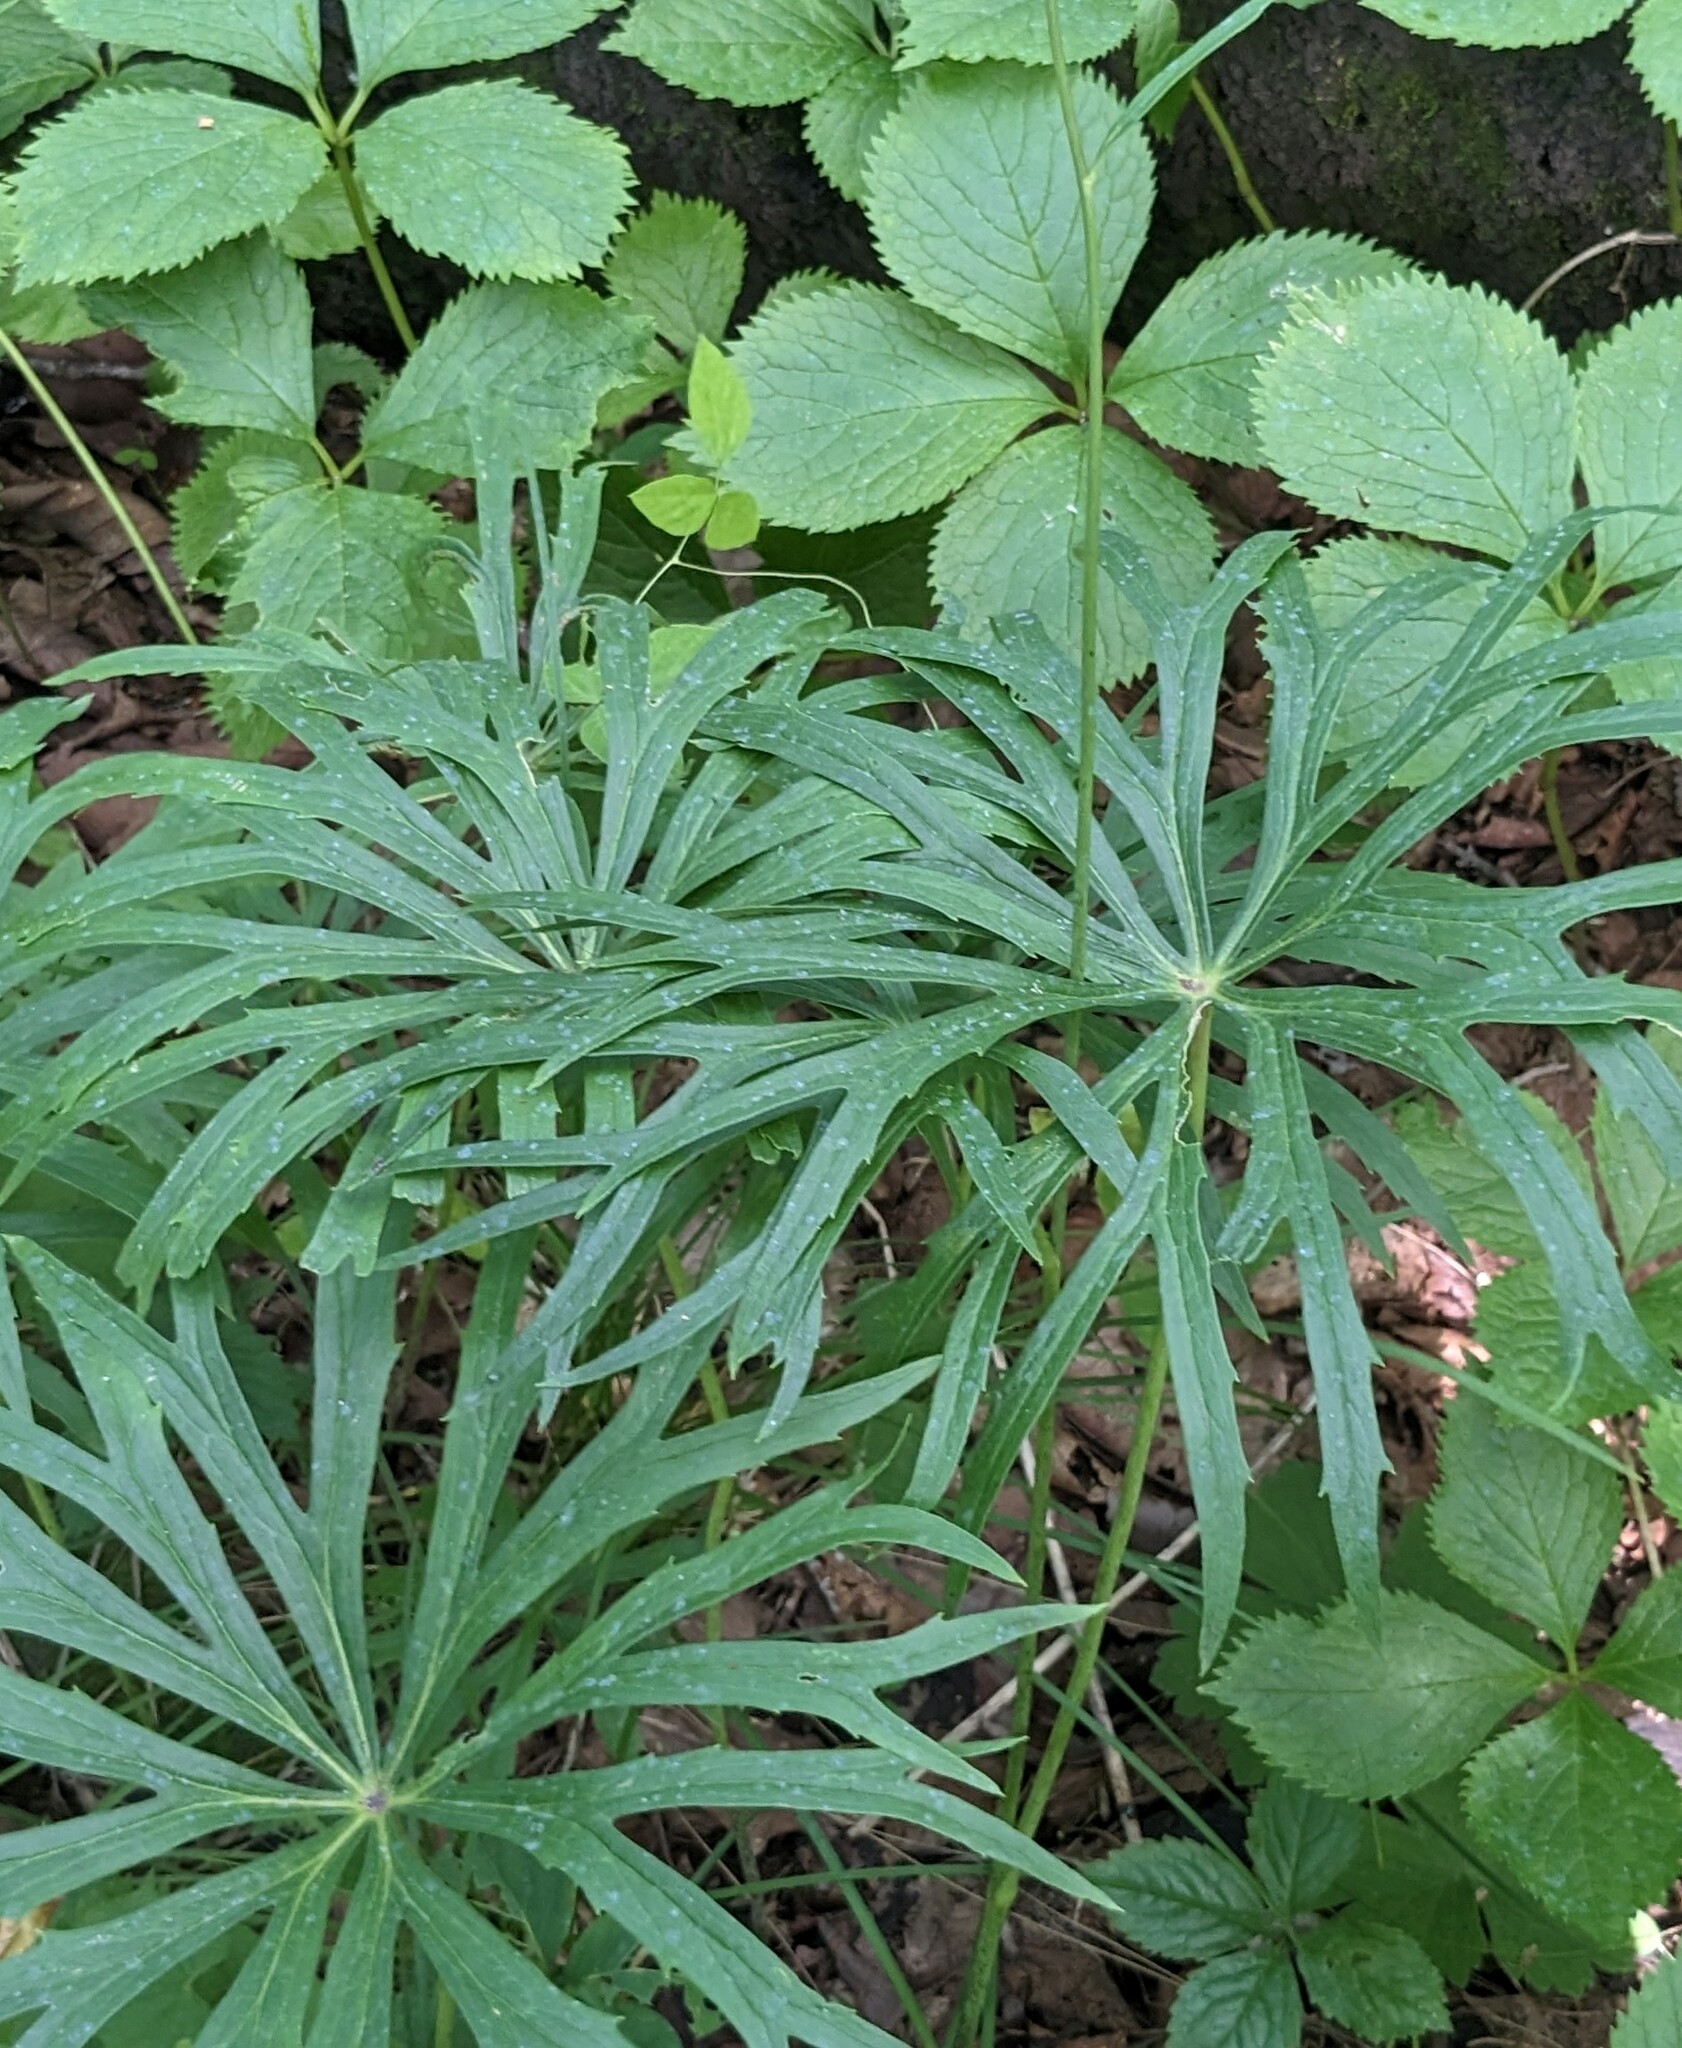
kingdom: Plantae
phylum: Tracheophyta
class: Magnoliopsida
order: Asterales
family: Asteraceae
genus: Syneilesis
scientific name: Syneilesis aconitifolia
